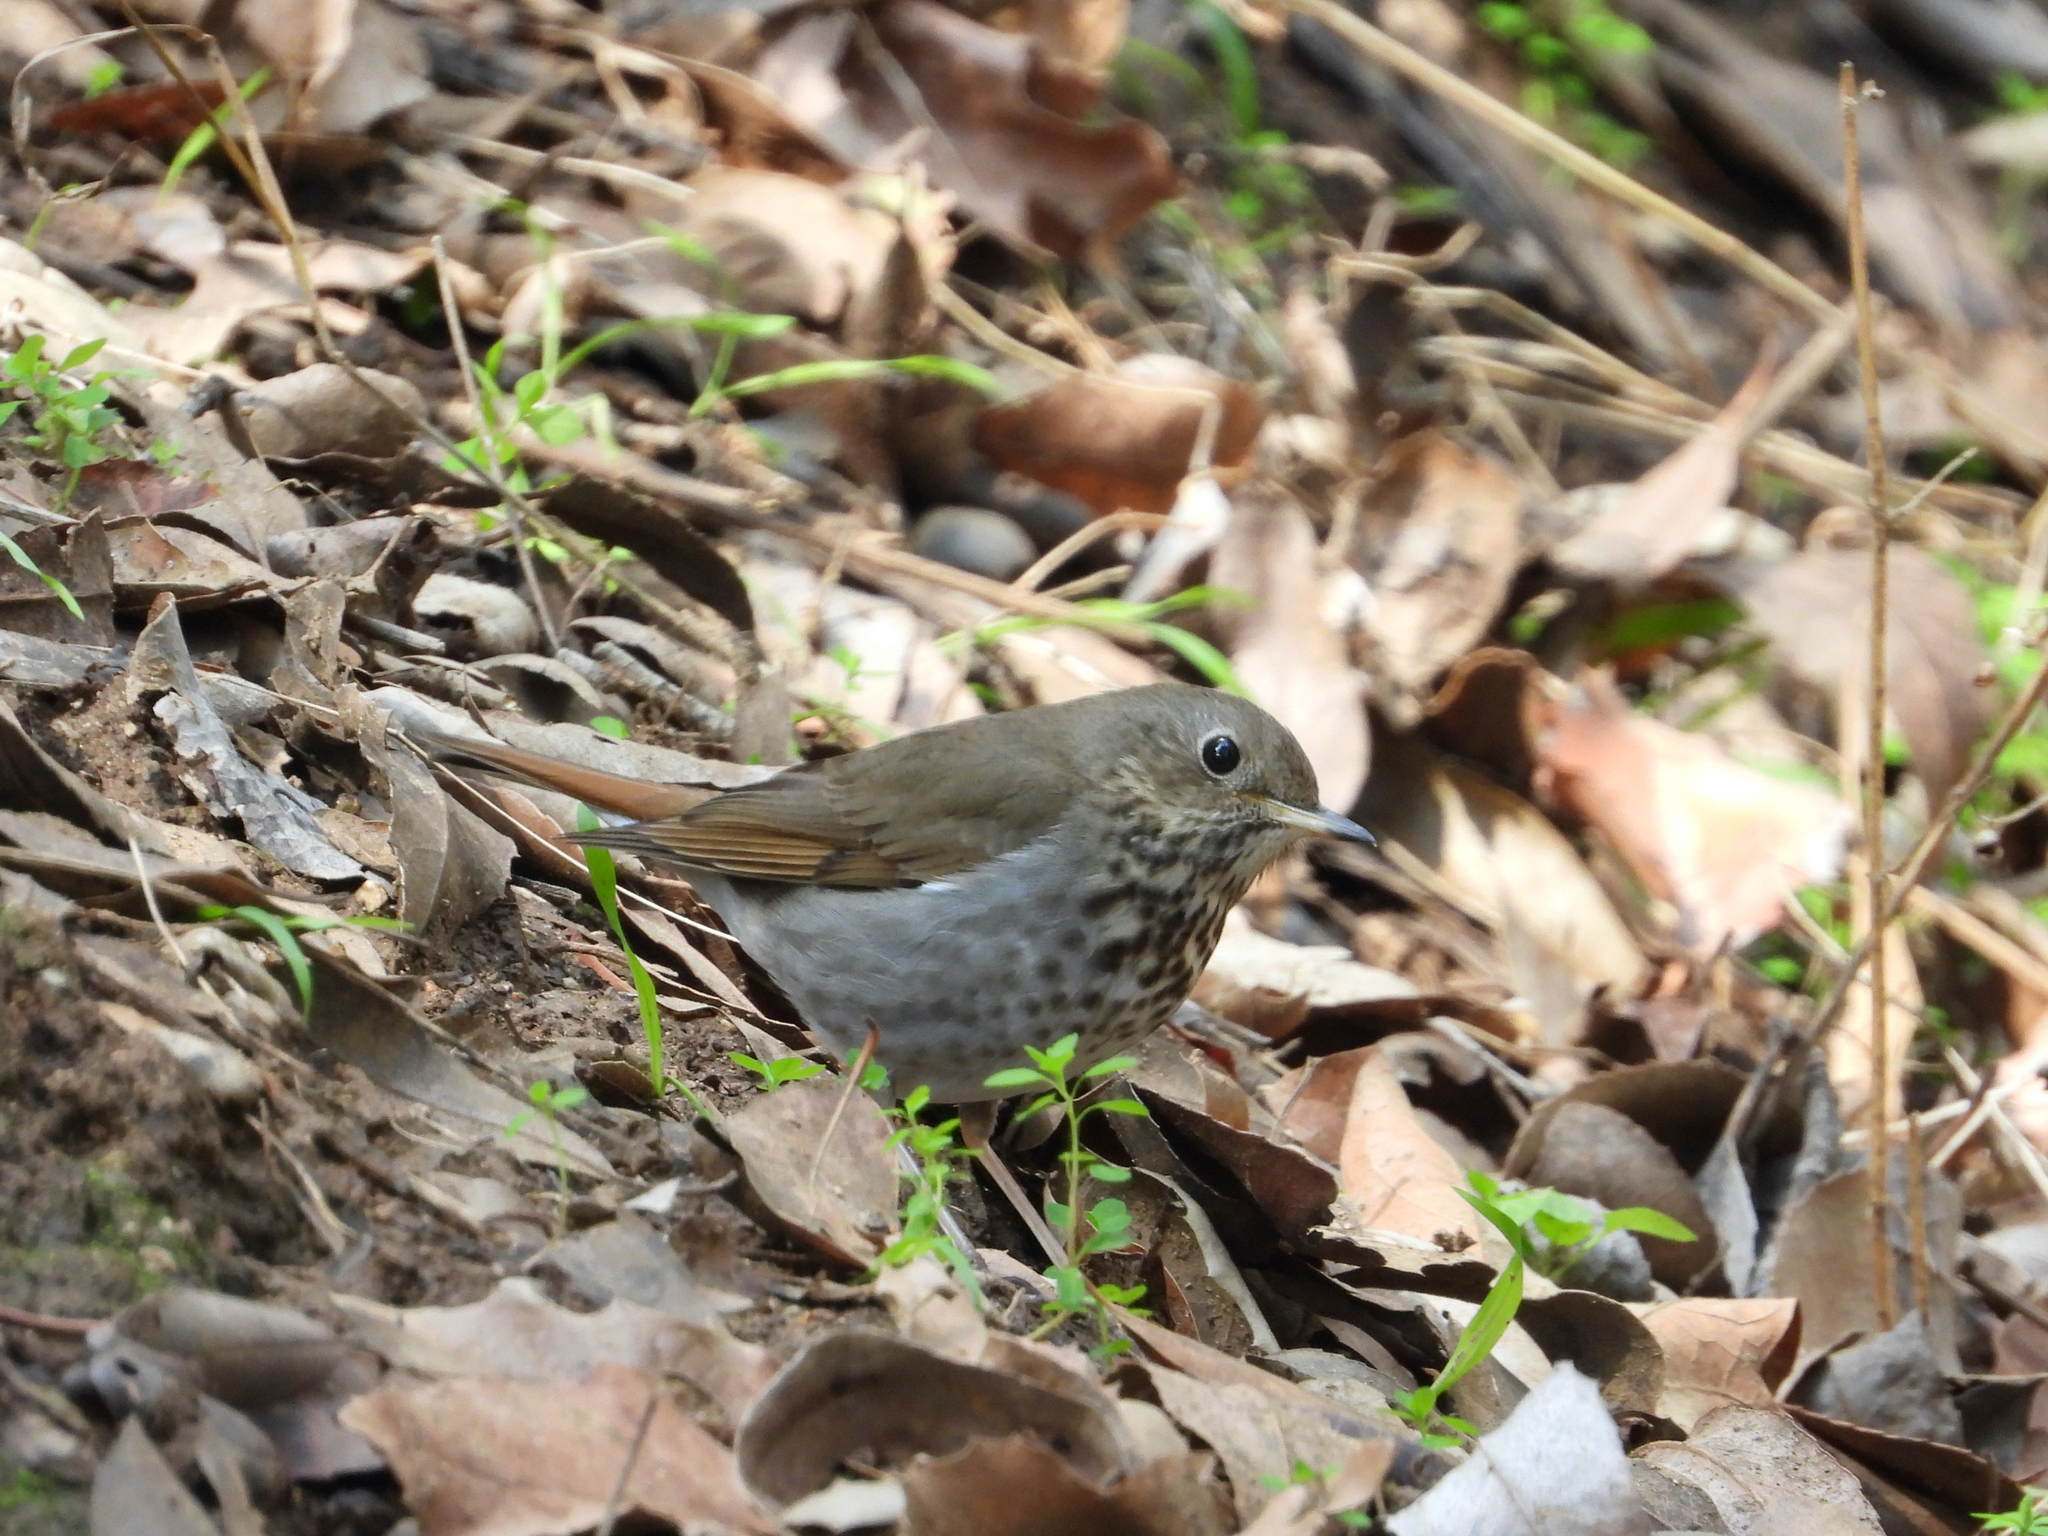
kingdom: Animalia
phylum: Chordata
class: Aves
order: Passeriformes
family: Turdidae
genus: Catharus
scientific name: Catharus guttatus
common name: Hermit thrush
